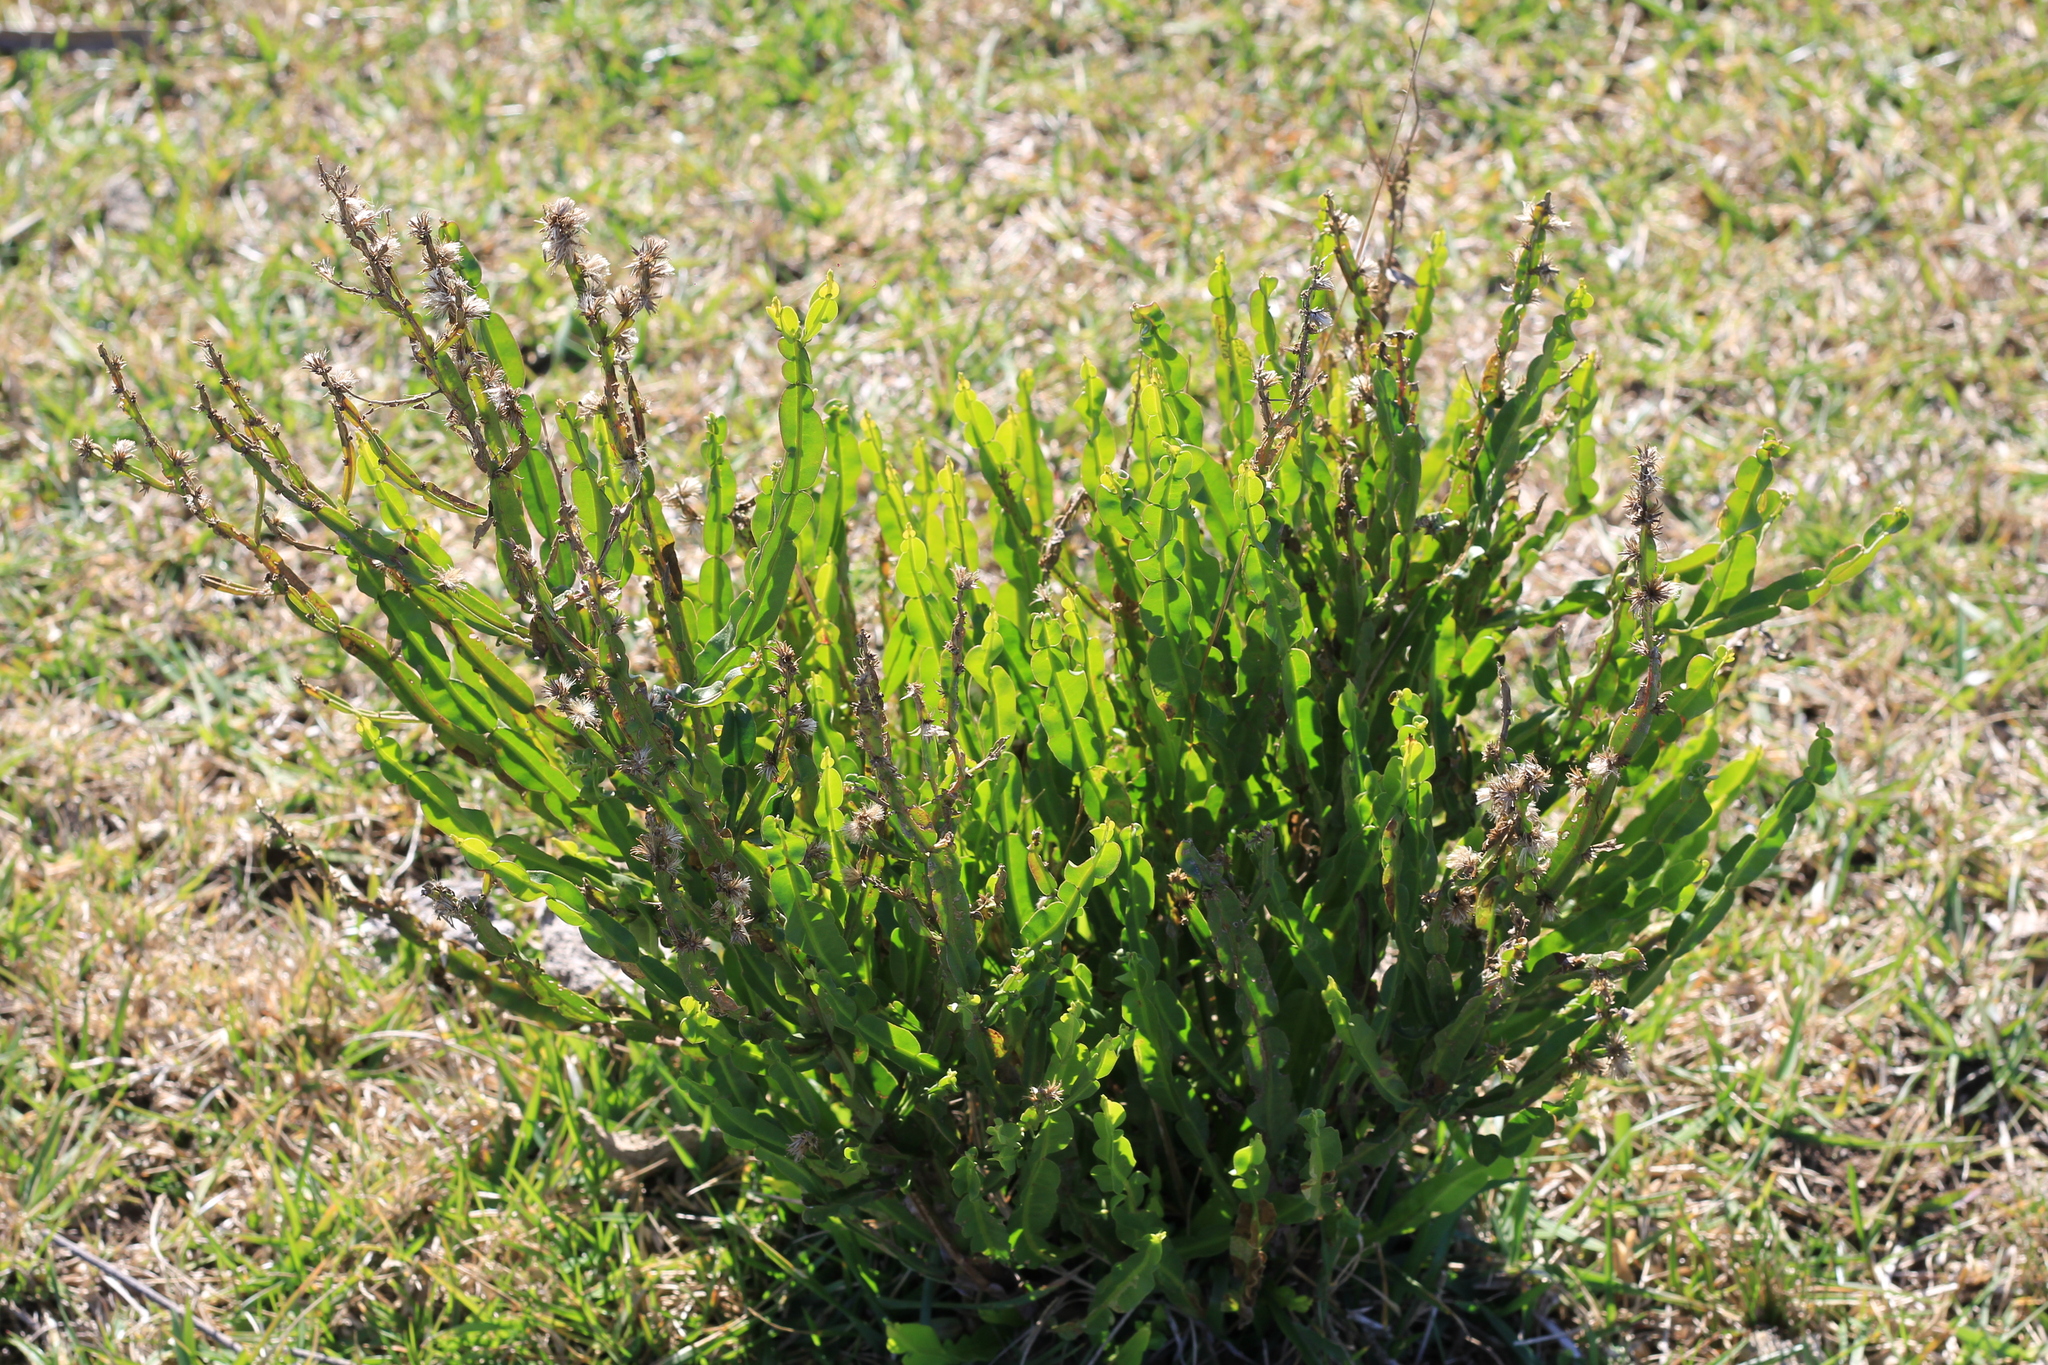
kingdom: Plantae
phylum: Tracheophyta
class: Magnoliopsida
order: Asterales
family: Asteraceae
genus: Baccharis
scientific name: Baccharis trimera
